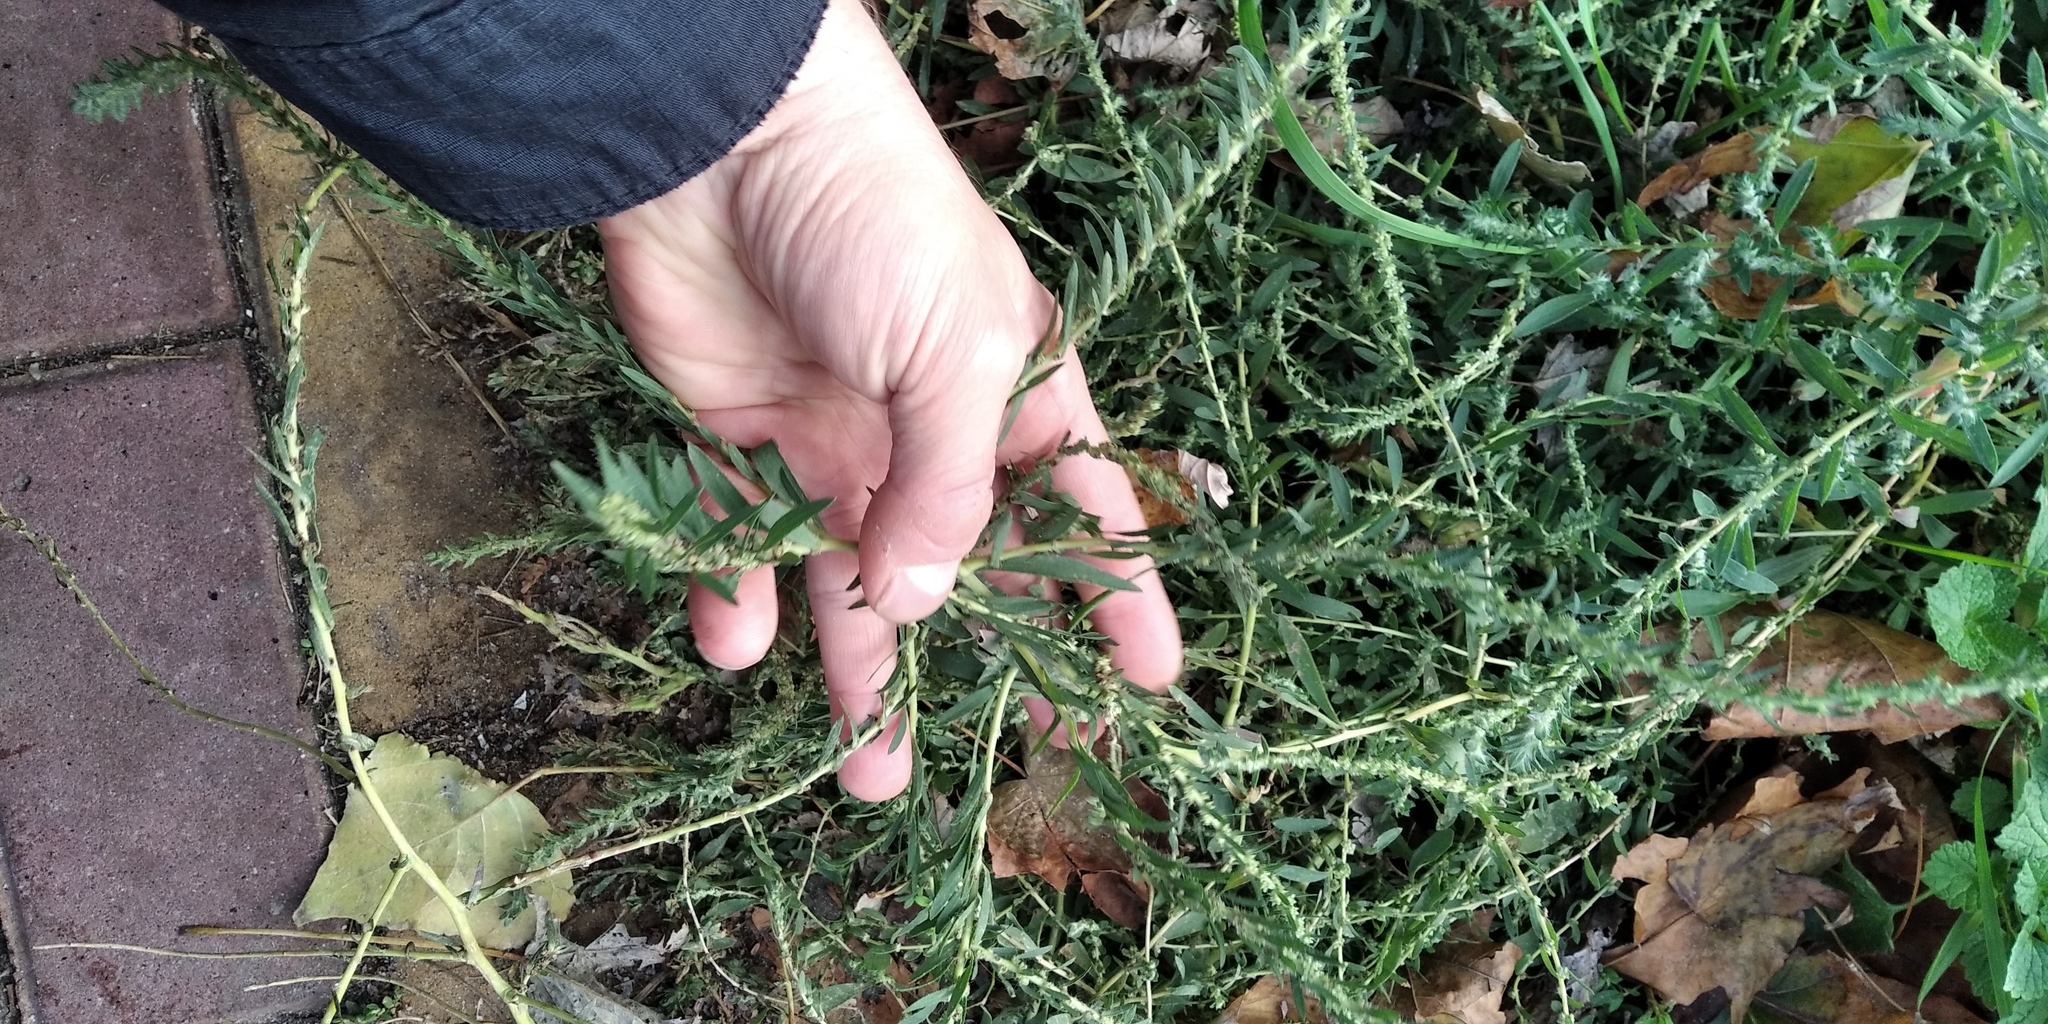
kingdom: Plantae
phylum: Tracheophyta
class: Magnoliopsida
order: Caryophyllales
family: Amaranthaceae
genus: Bassia
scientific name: Bassia scoparia
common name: Belvedere
